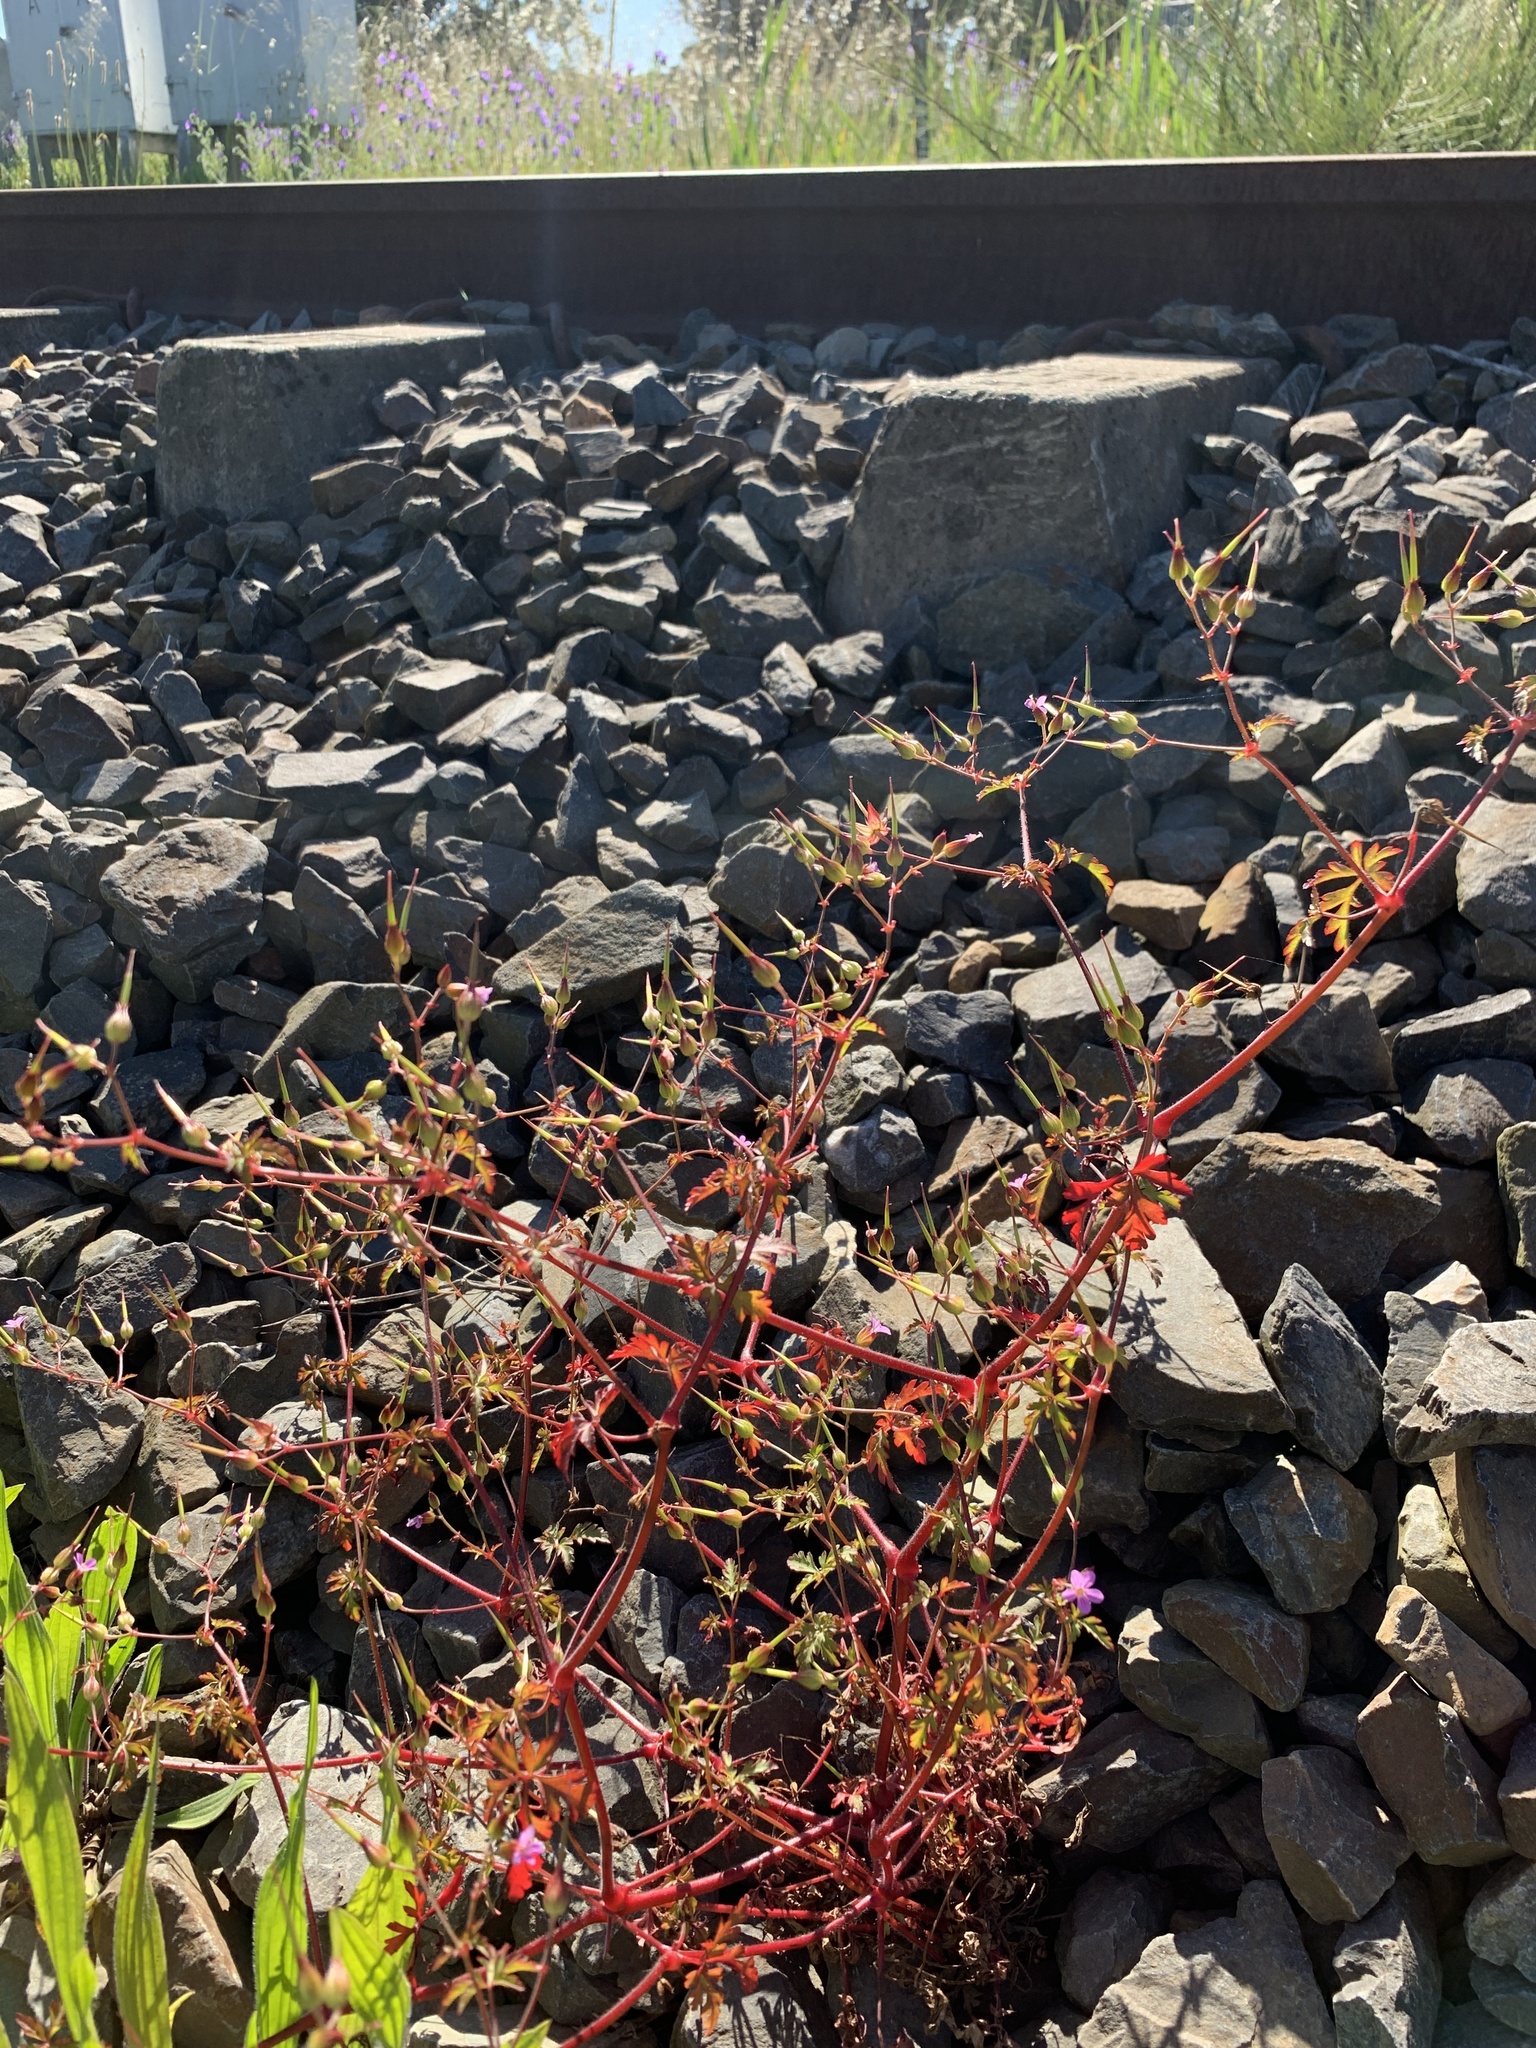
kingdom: Plantae
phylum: Tracheophyta
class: Magnoliopsida
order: Geraniales
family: Geraniaceae
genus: Geranium
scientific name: Geranium purpureum
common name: Little-robin
